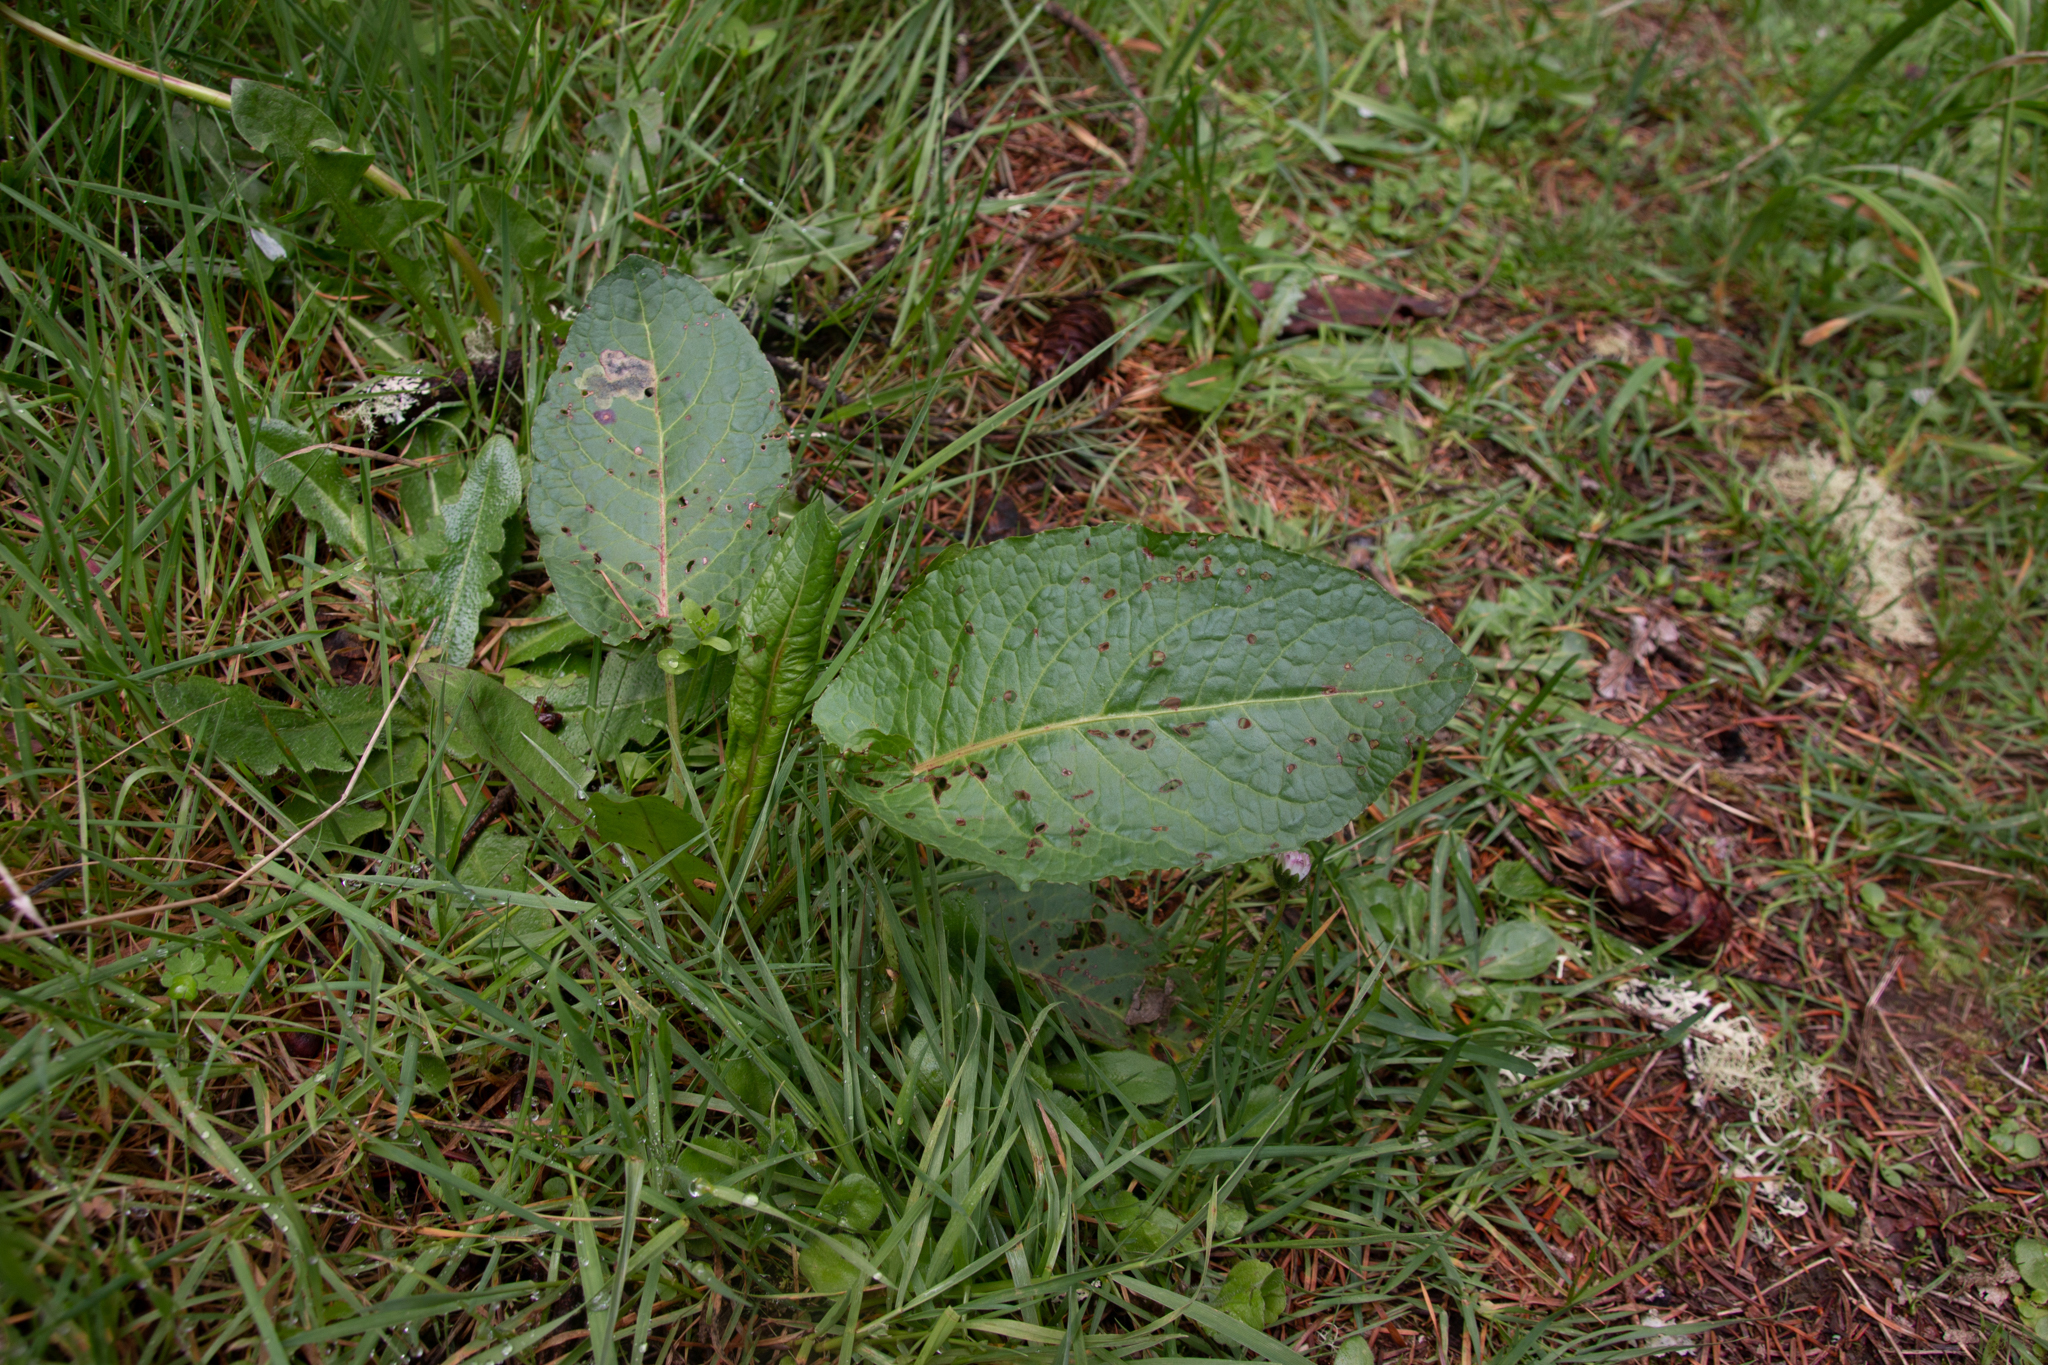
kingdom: Plantae
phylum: Tracheophyta
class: Magnoliopsida
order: Caryophyllales
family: Polygonaceae
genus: Rumex
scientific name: Rumex obtusifolius
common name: Bitter dock
